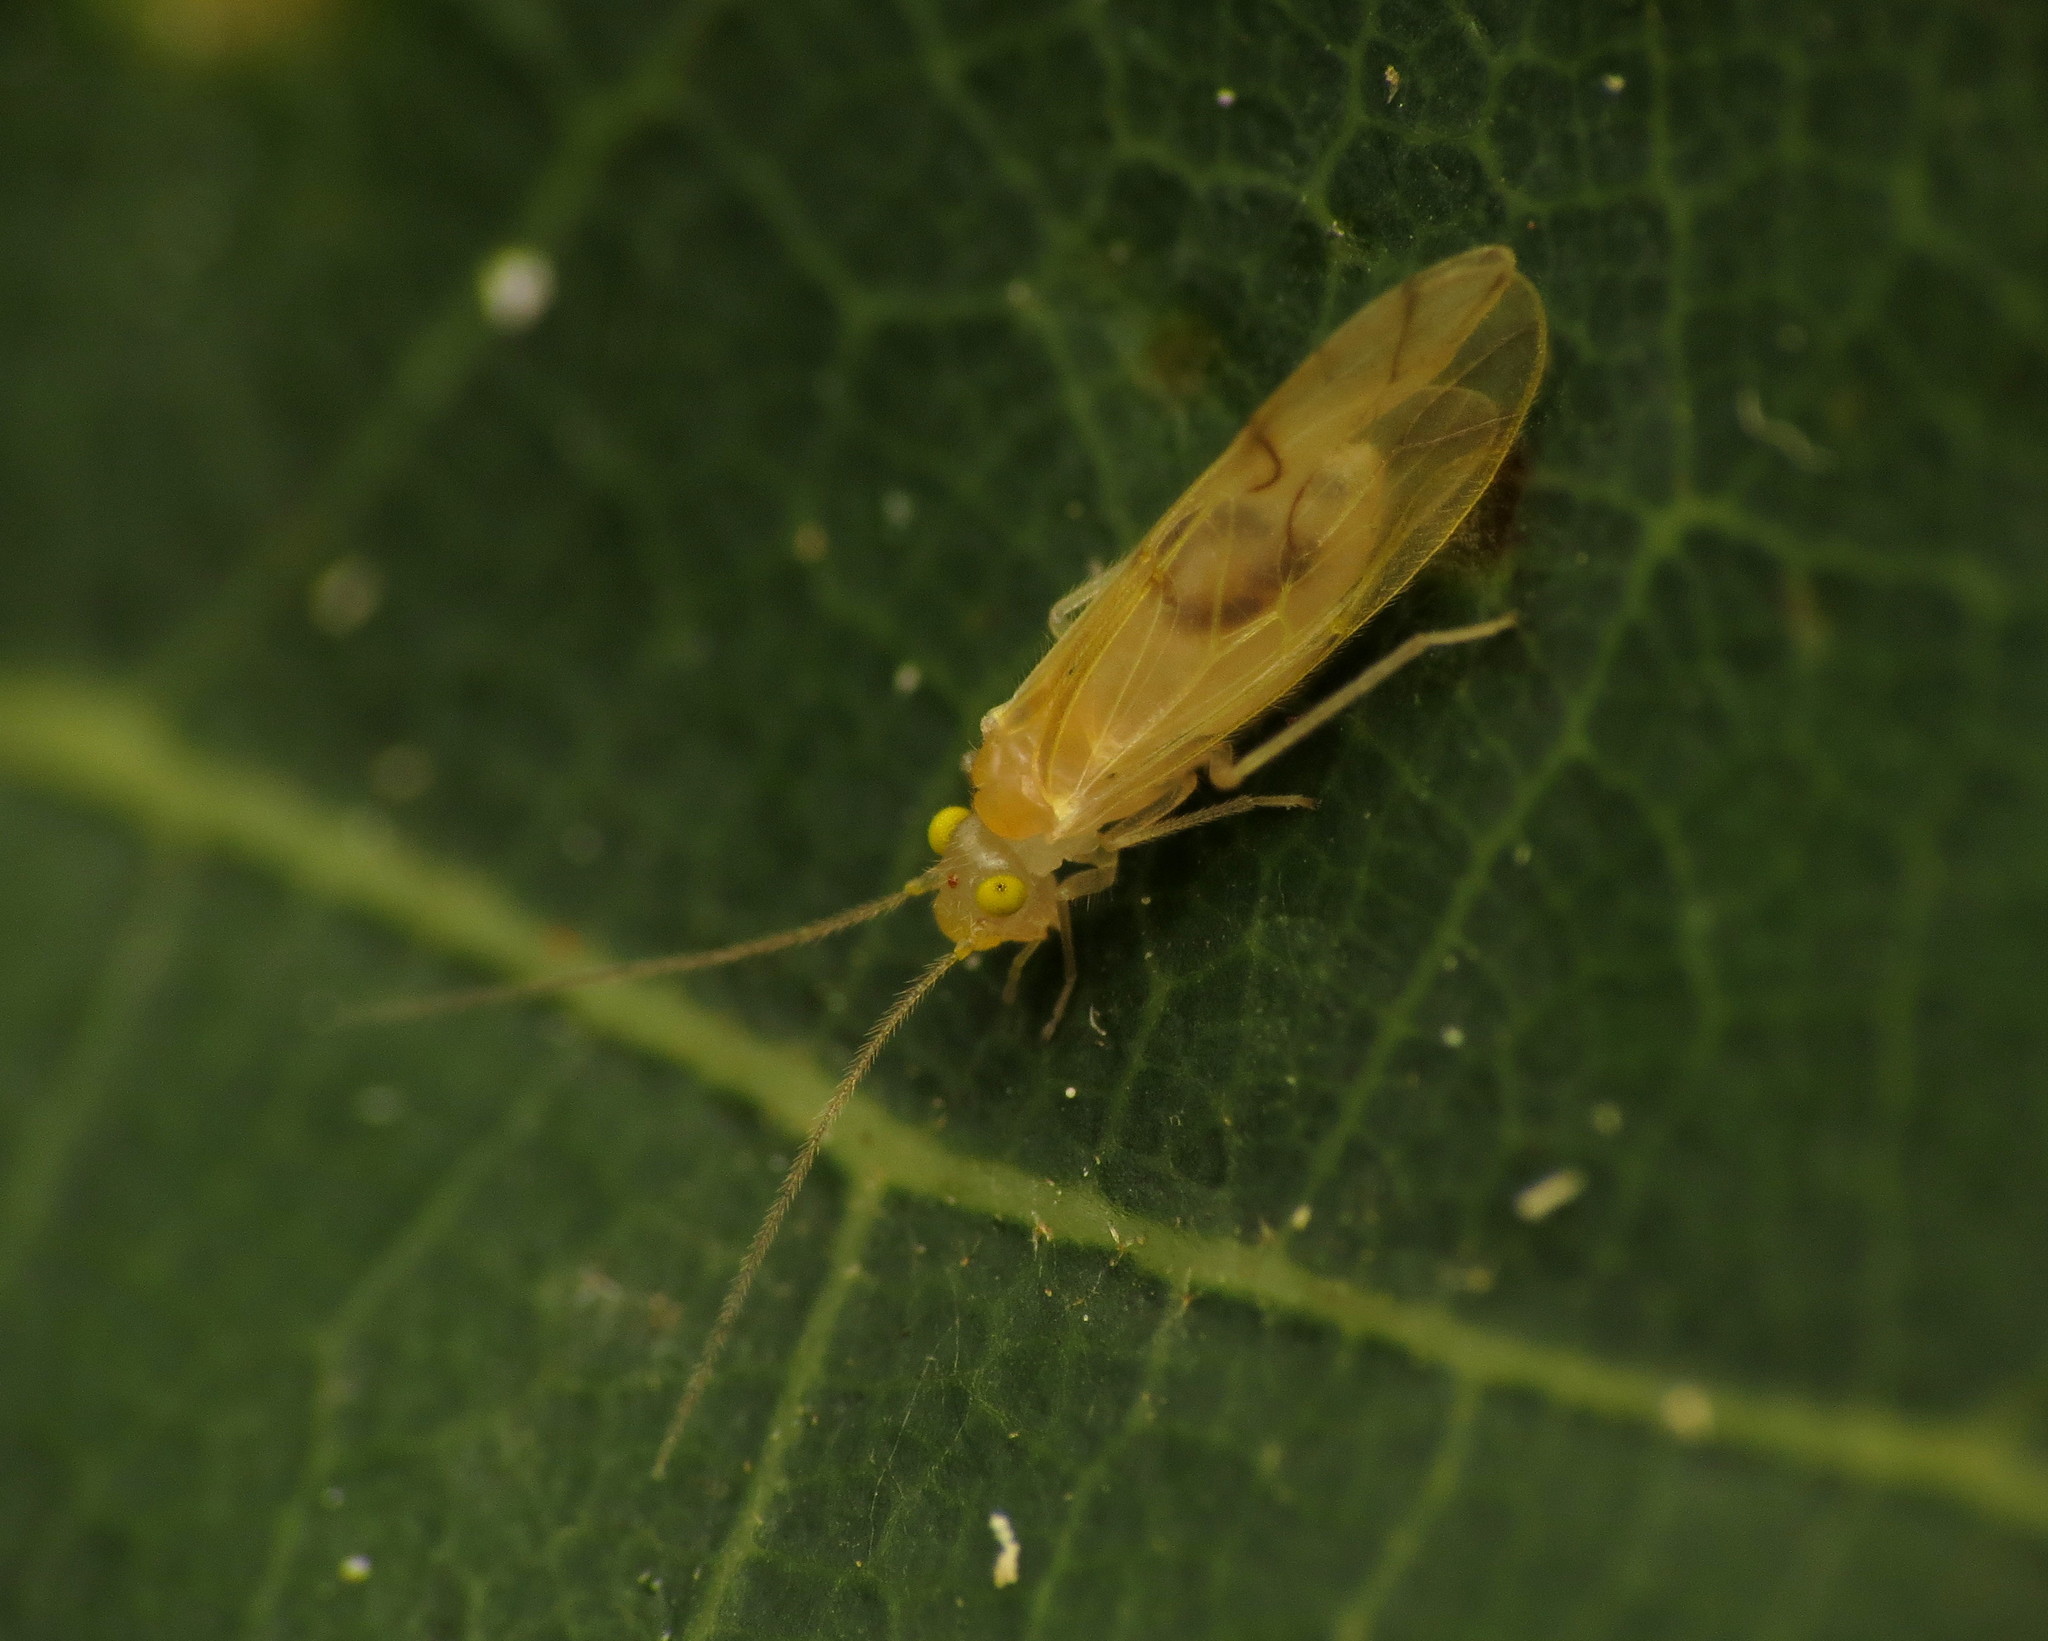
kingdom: Animalia
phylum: Arthropoda
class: Insecta
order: Psocodea
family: Paracaeciliidae
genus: Xanthocaecilius
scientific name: Xanthocaecilius sommermanae
